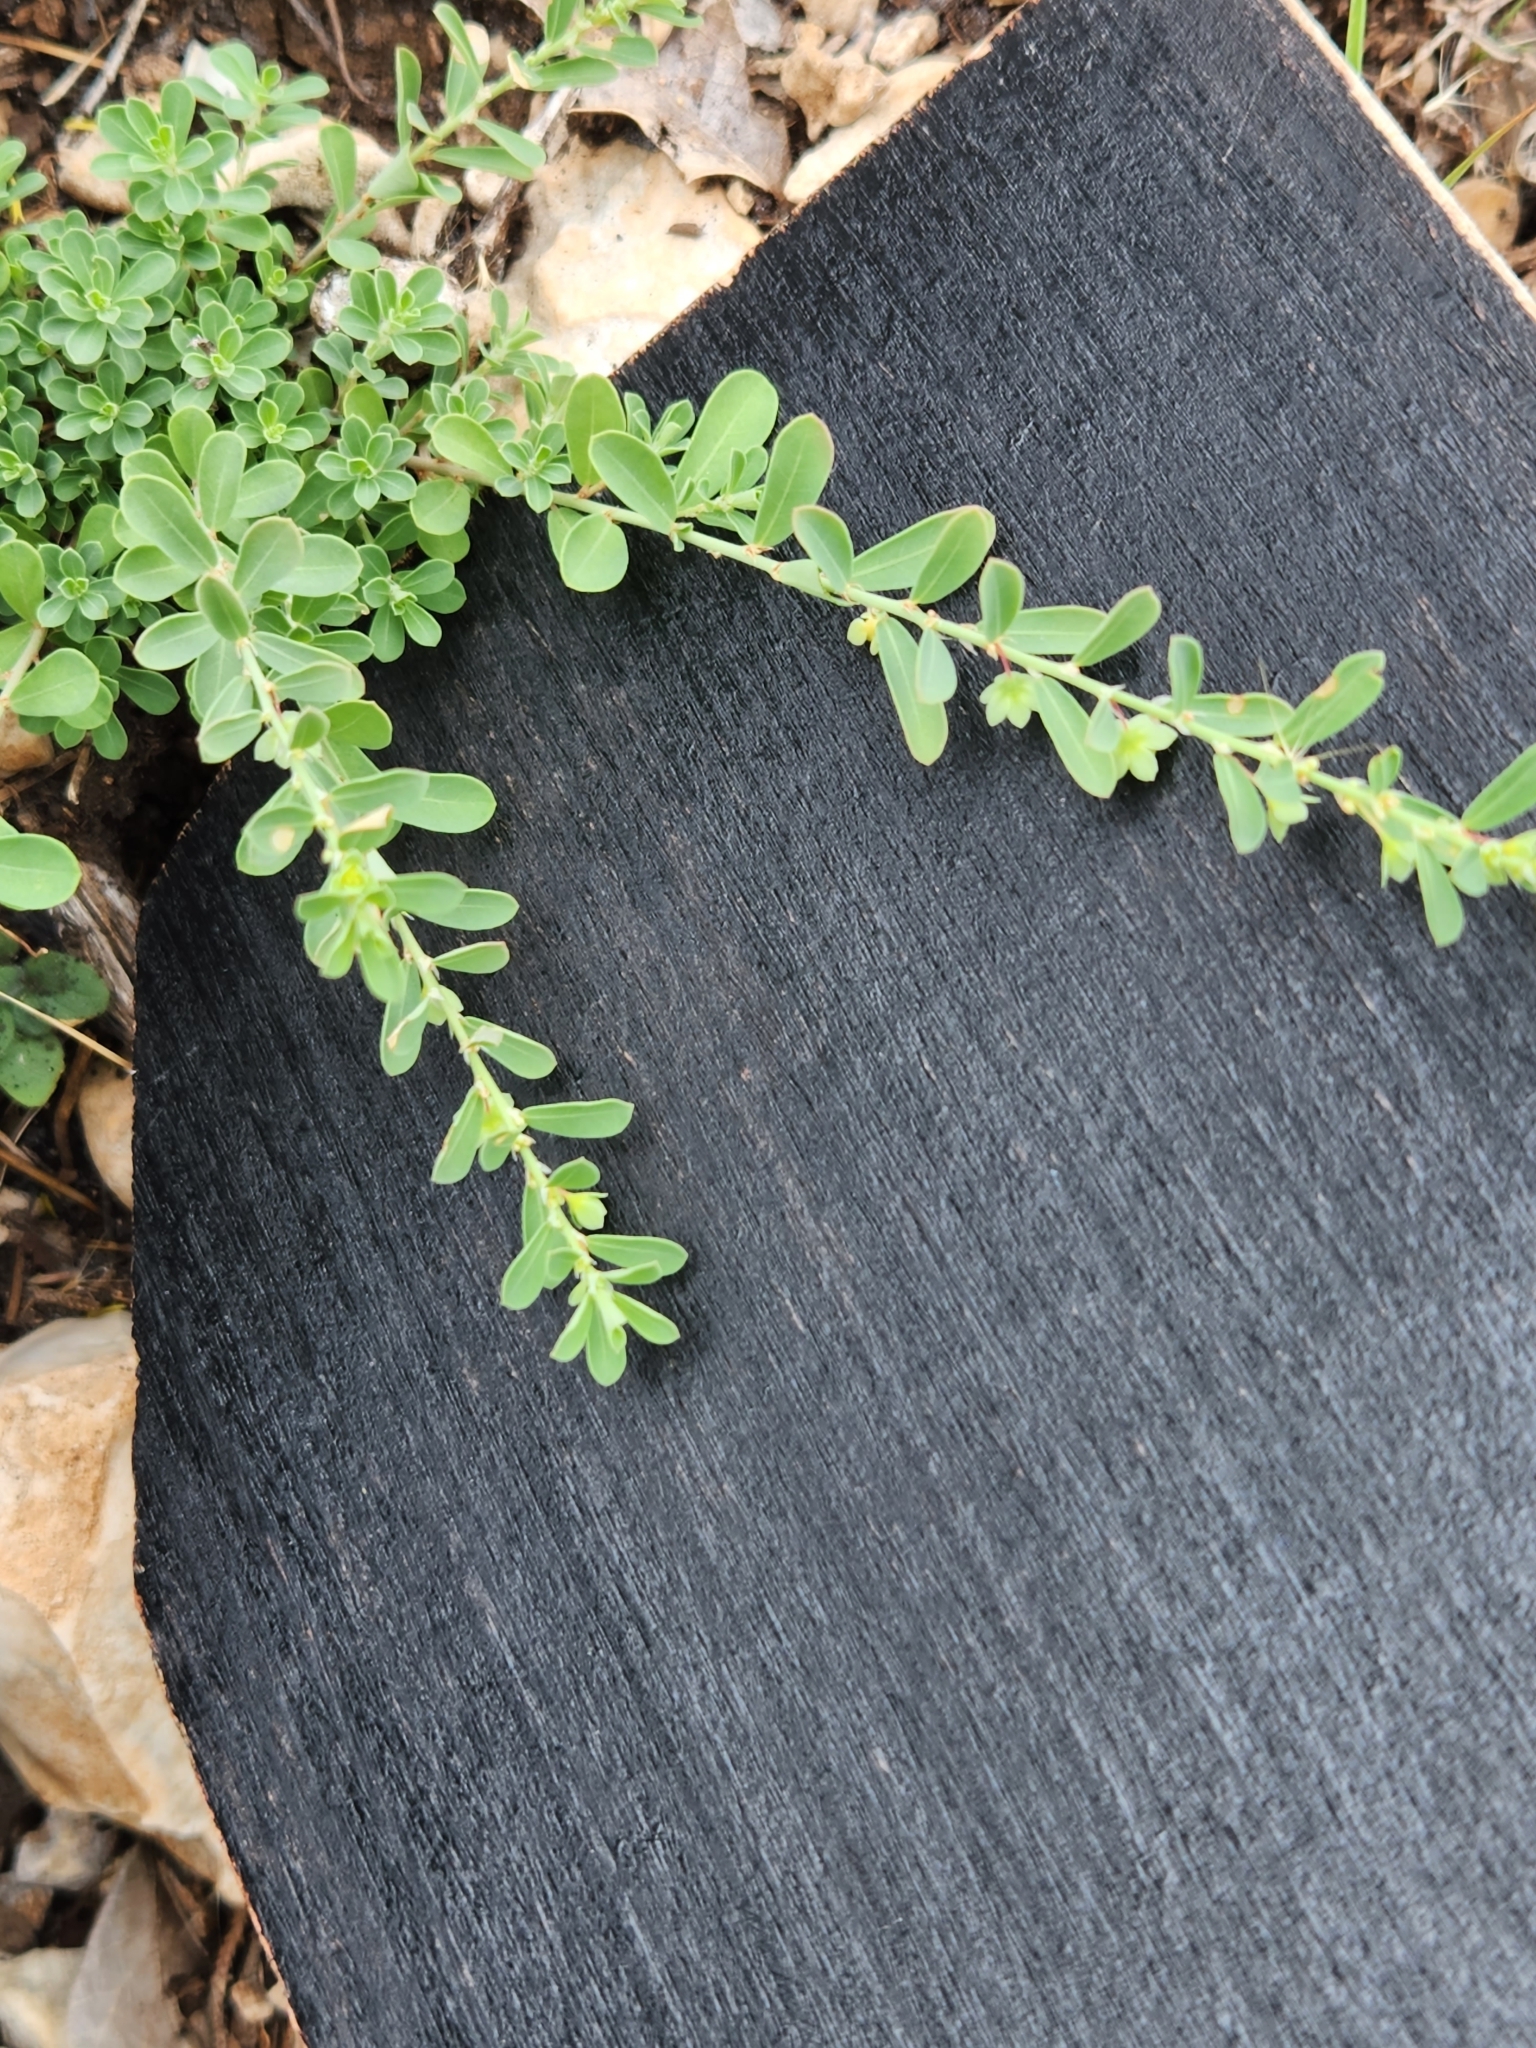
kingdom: Plantae
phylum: Tracheophyta
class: Magnoliopsida
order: Malpighiales
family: Phyllanthaceae
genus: Phyllanthus
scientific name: Phyllanthus polygonoides
